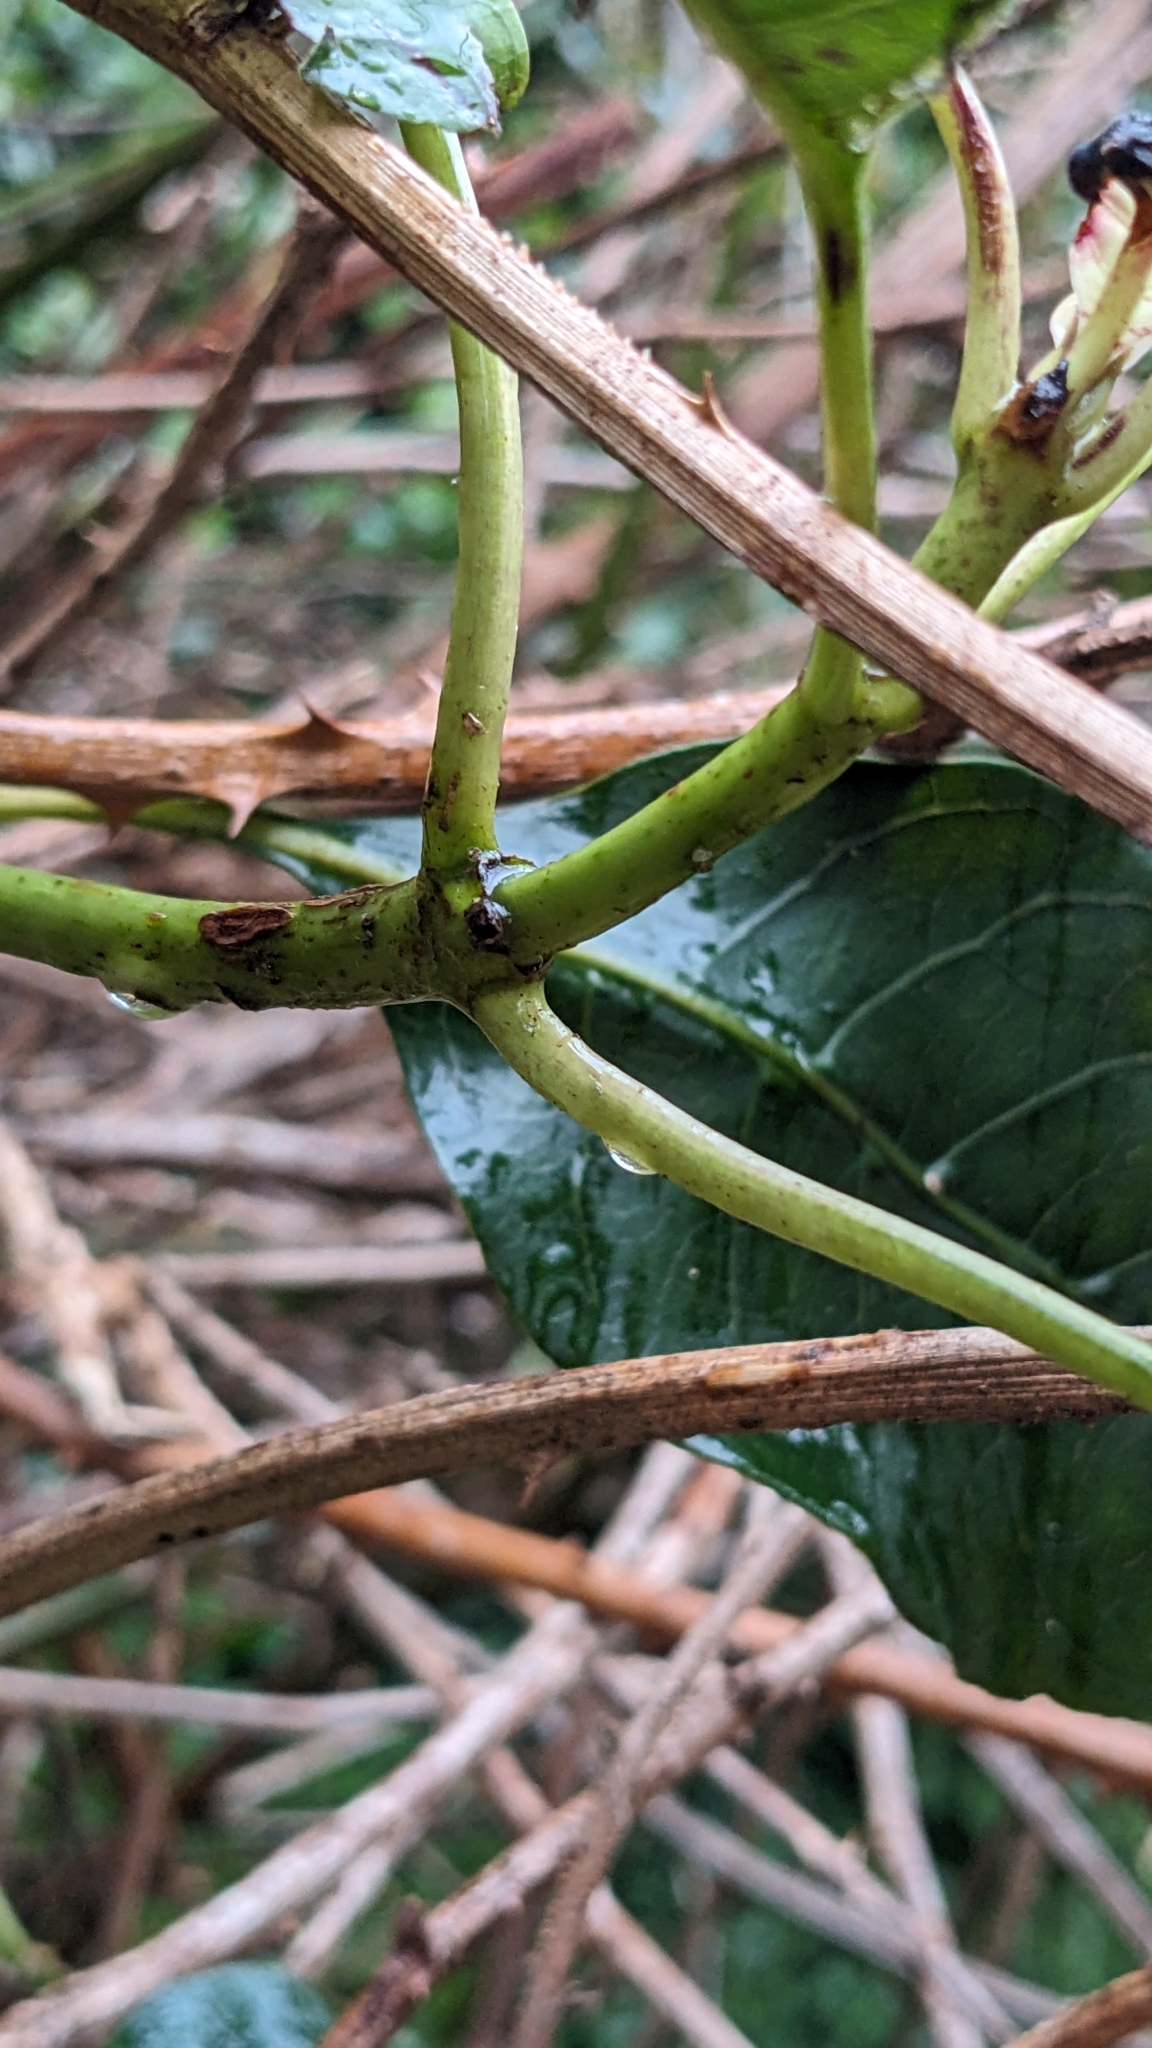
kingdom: Plantae
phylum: Tracheophyta
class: Magnoliopsida
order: Gentianales
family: Rubiaceae
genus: Coprosma
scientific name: Coprosma autumnalis
